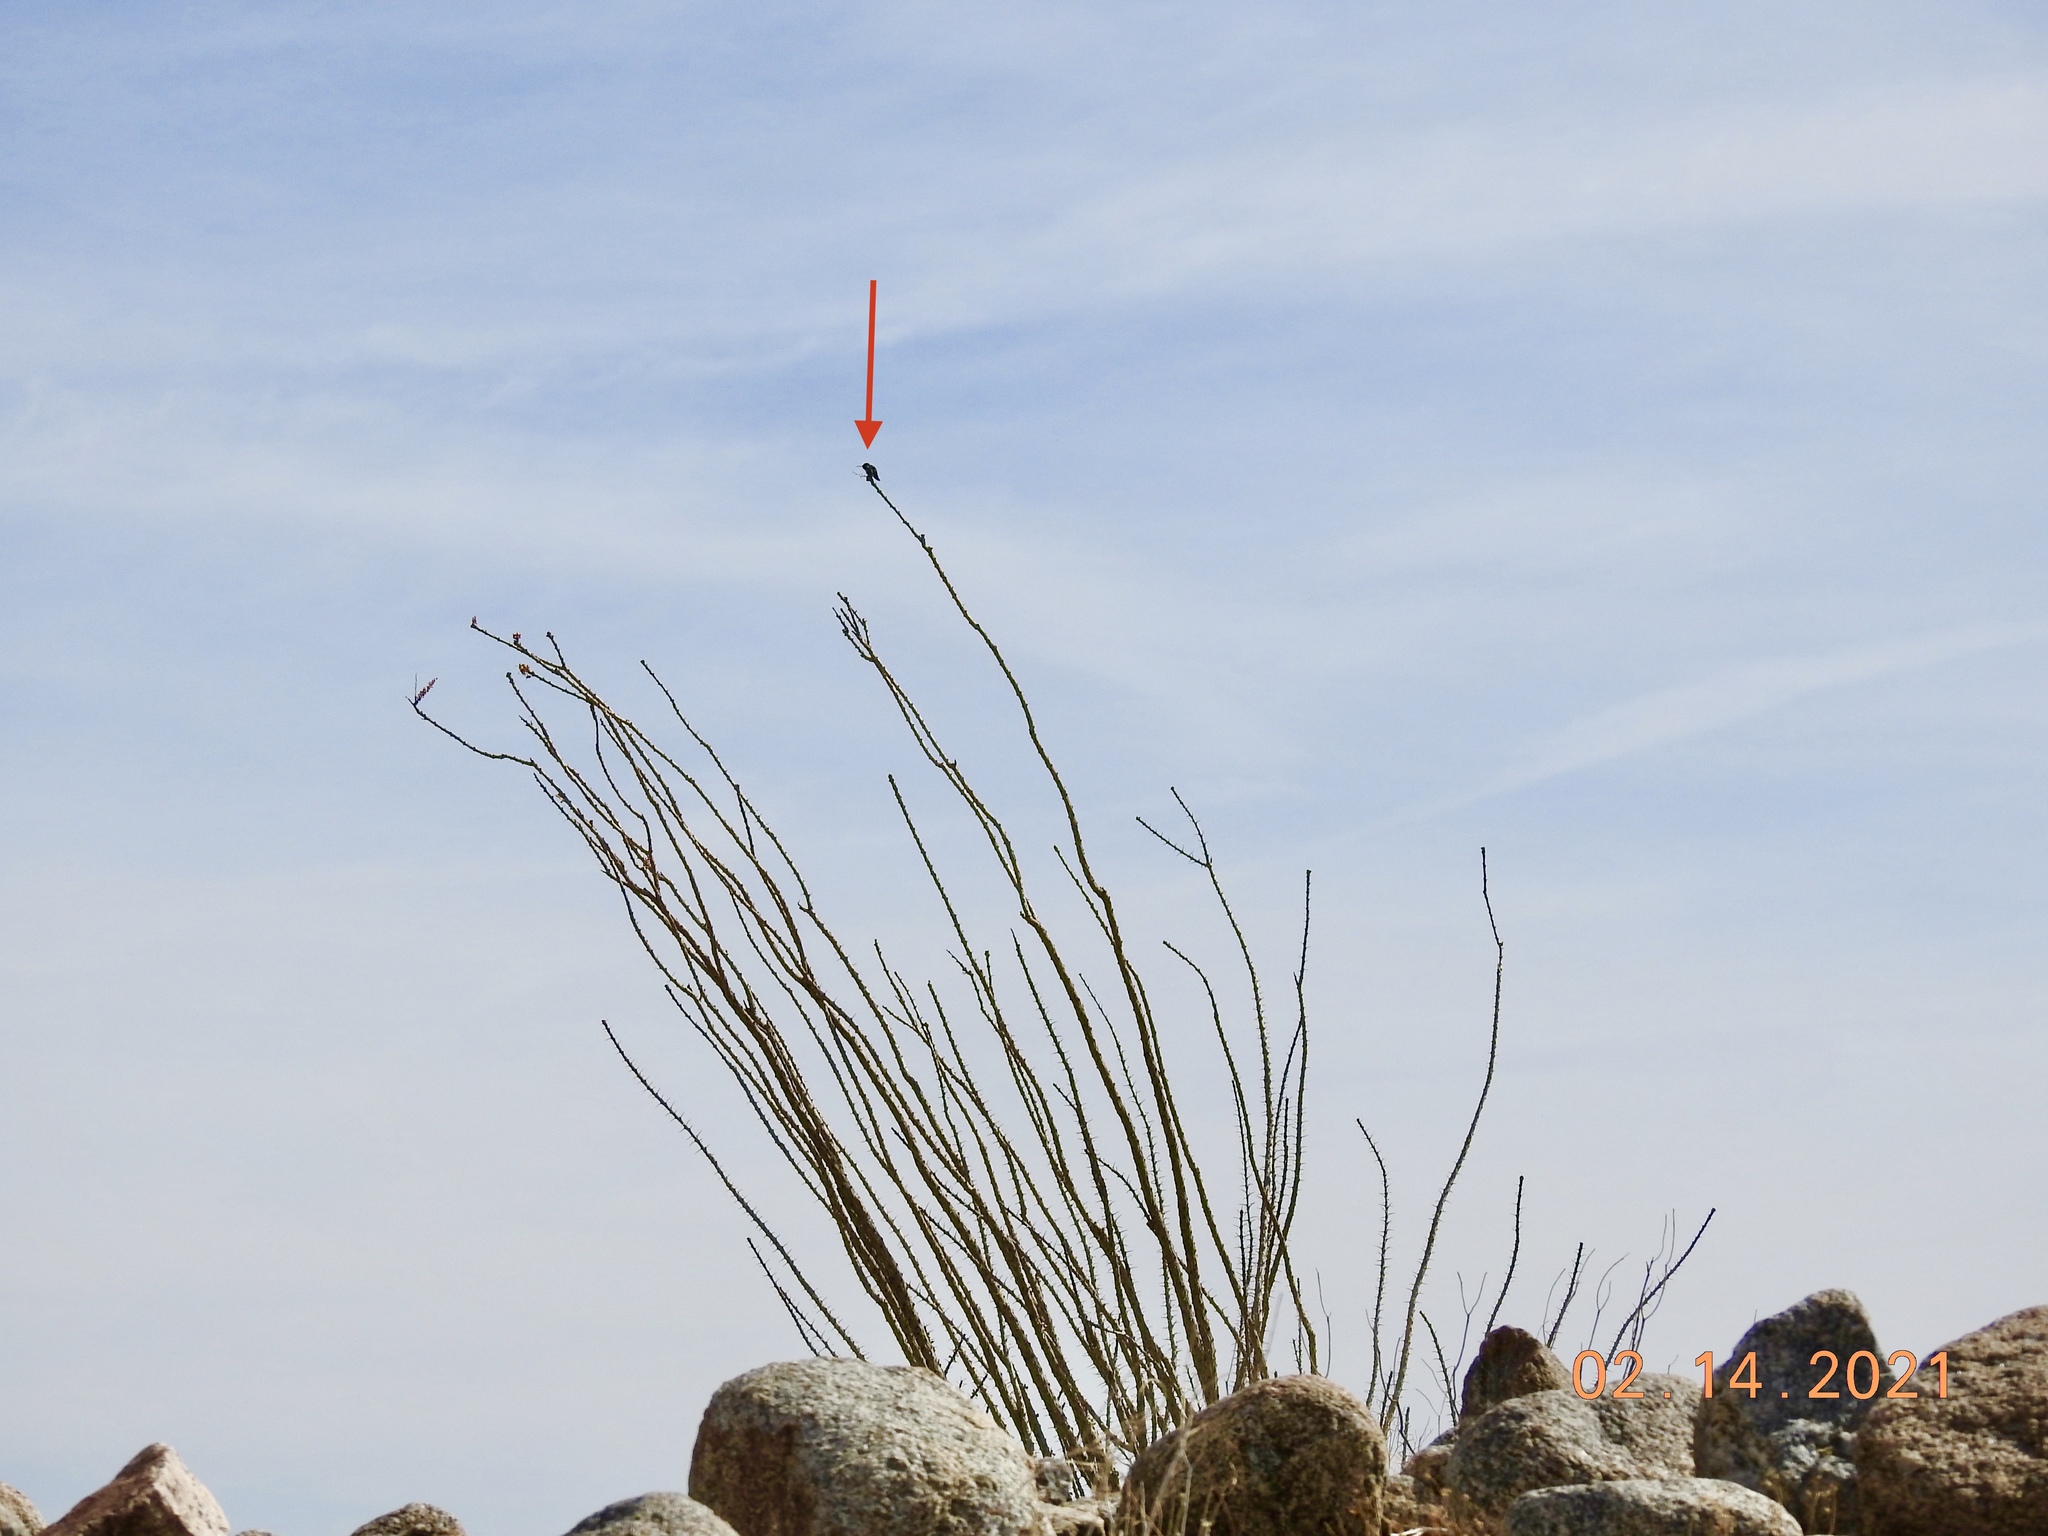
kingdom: Animalia
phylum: Chordata
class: Aves
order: Apodiformes
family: Trochilidae
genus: Calypte
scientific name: Calypte costae
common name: Costa's hummingbird
